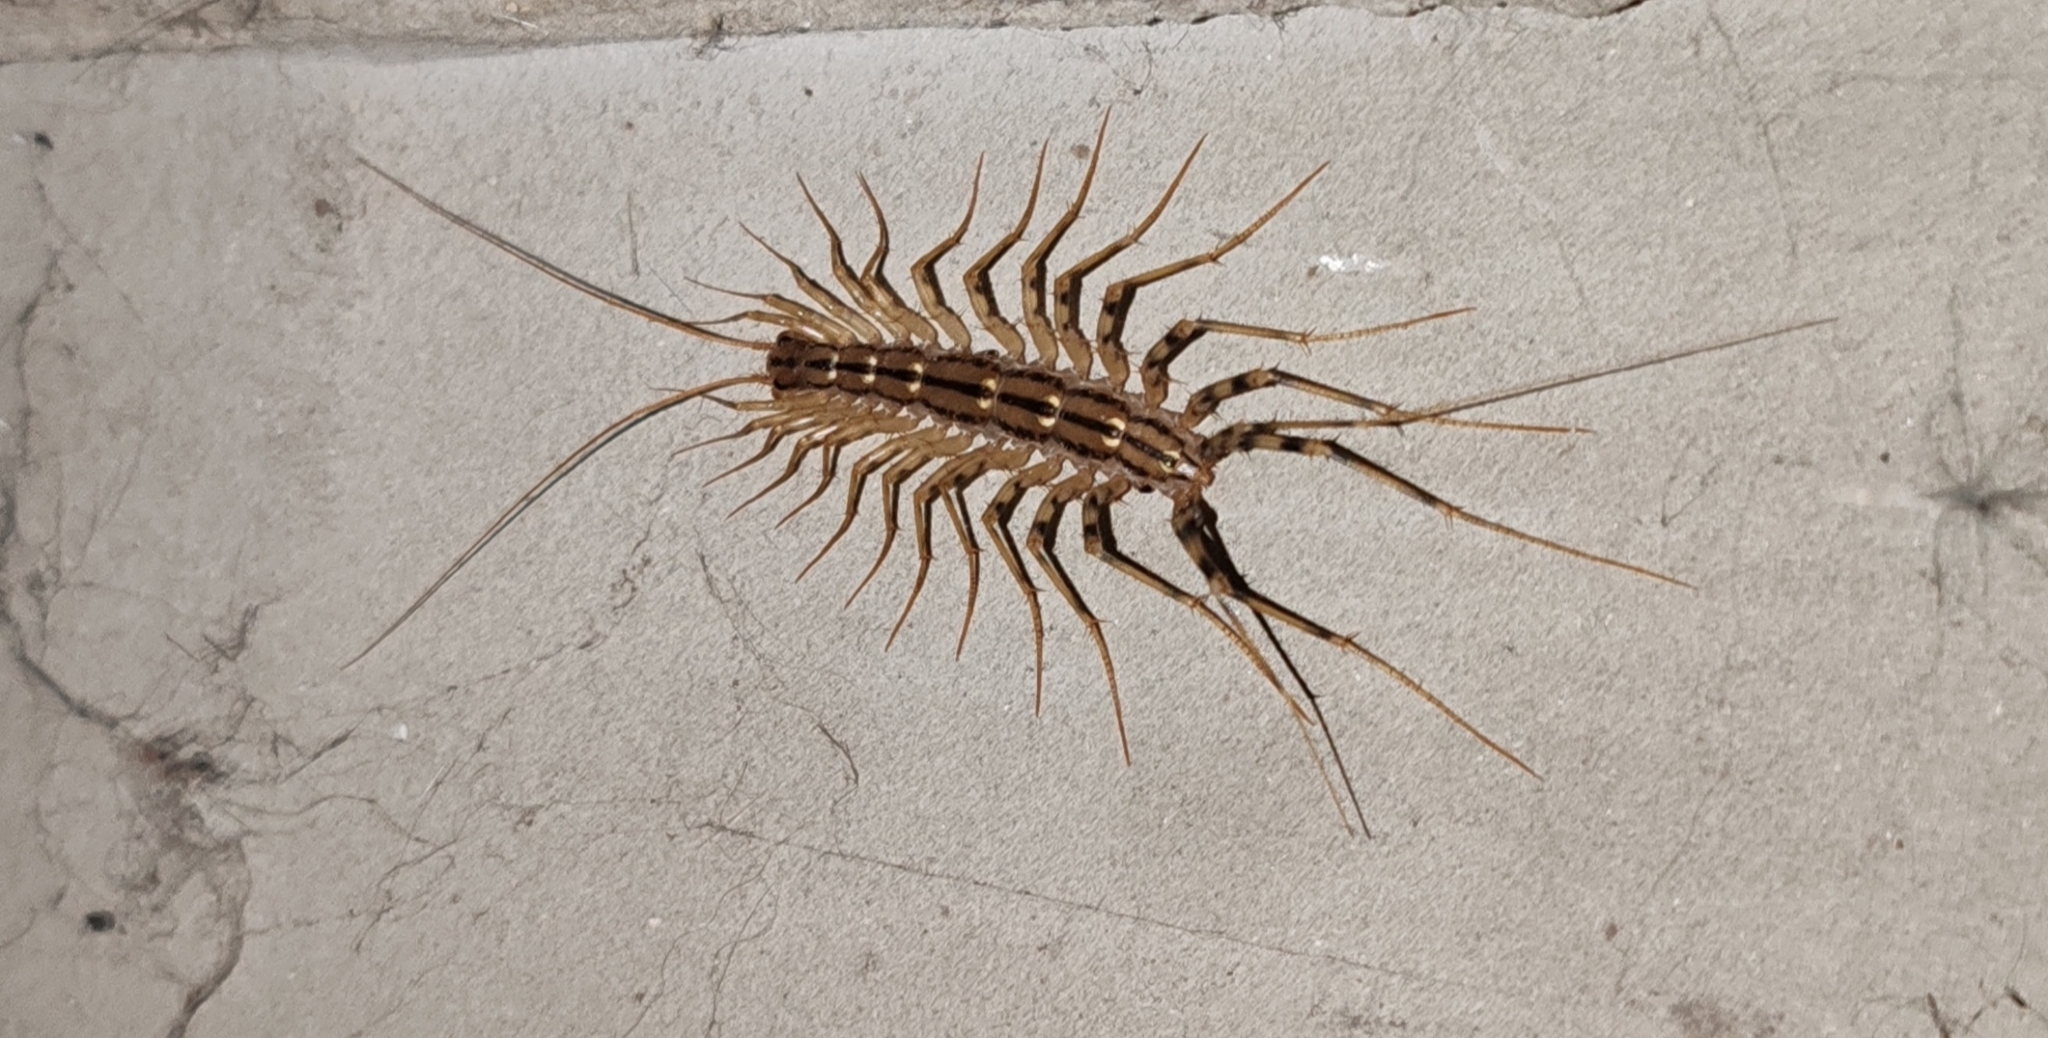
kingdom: Animalia
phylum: Arthropoda
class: Chilopoda
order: Scutigeromorpha
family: Scutigeridae
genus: Scutigera
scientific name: Scutigera coleoptrata
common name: House centipede
